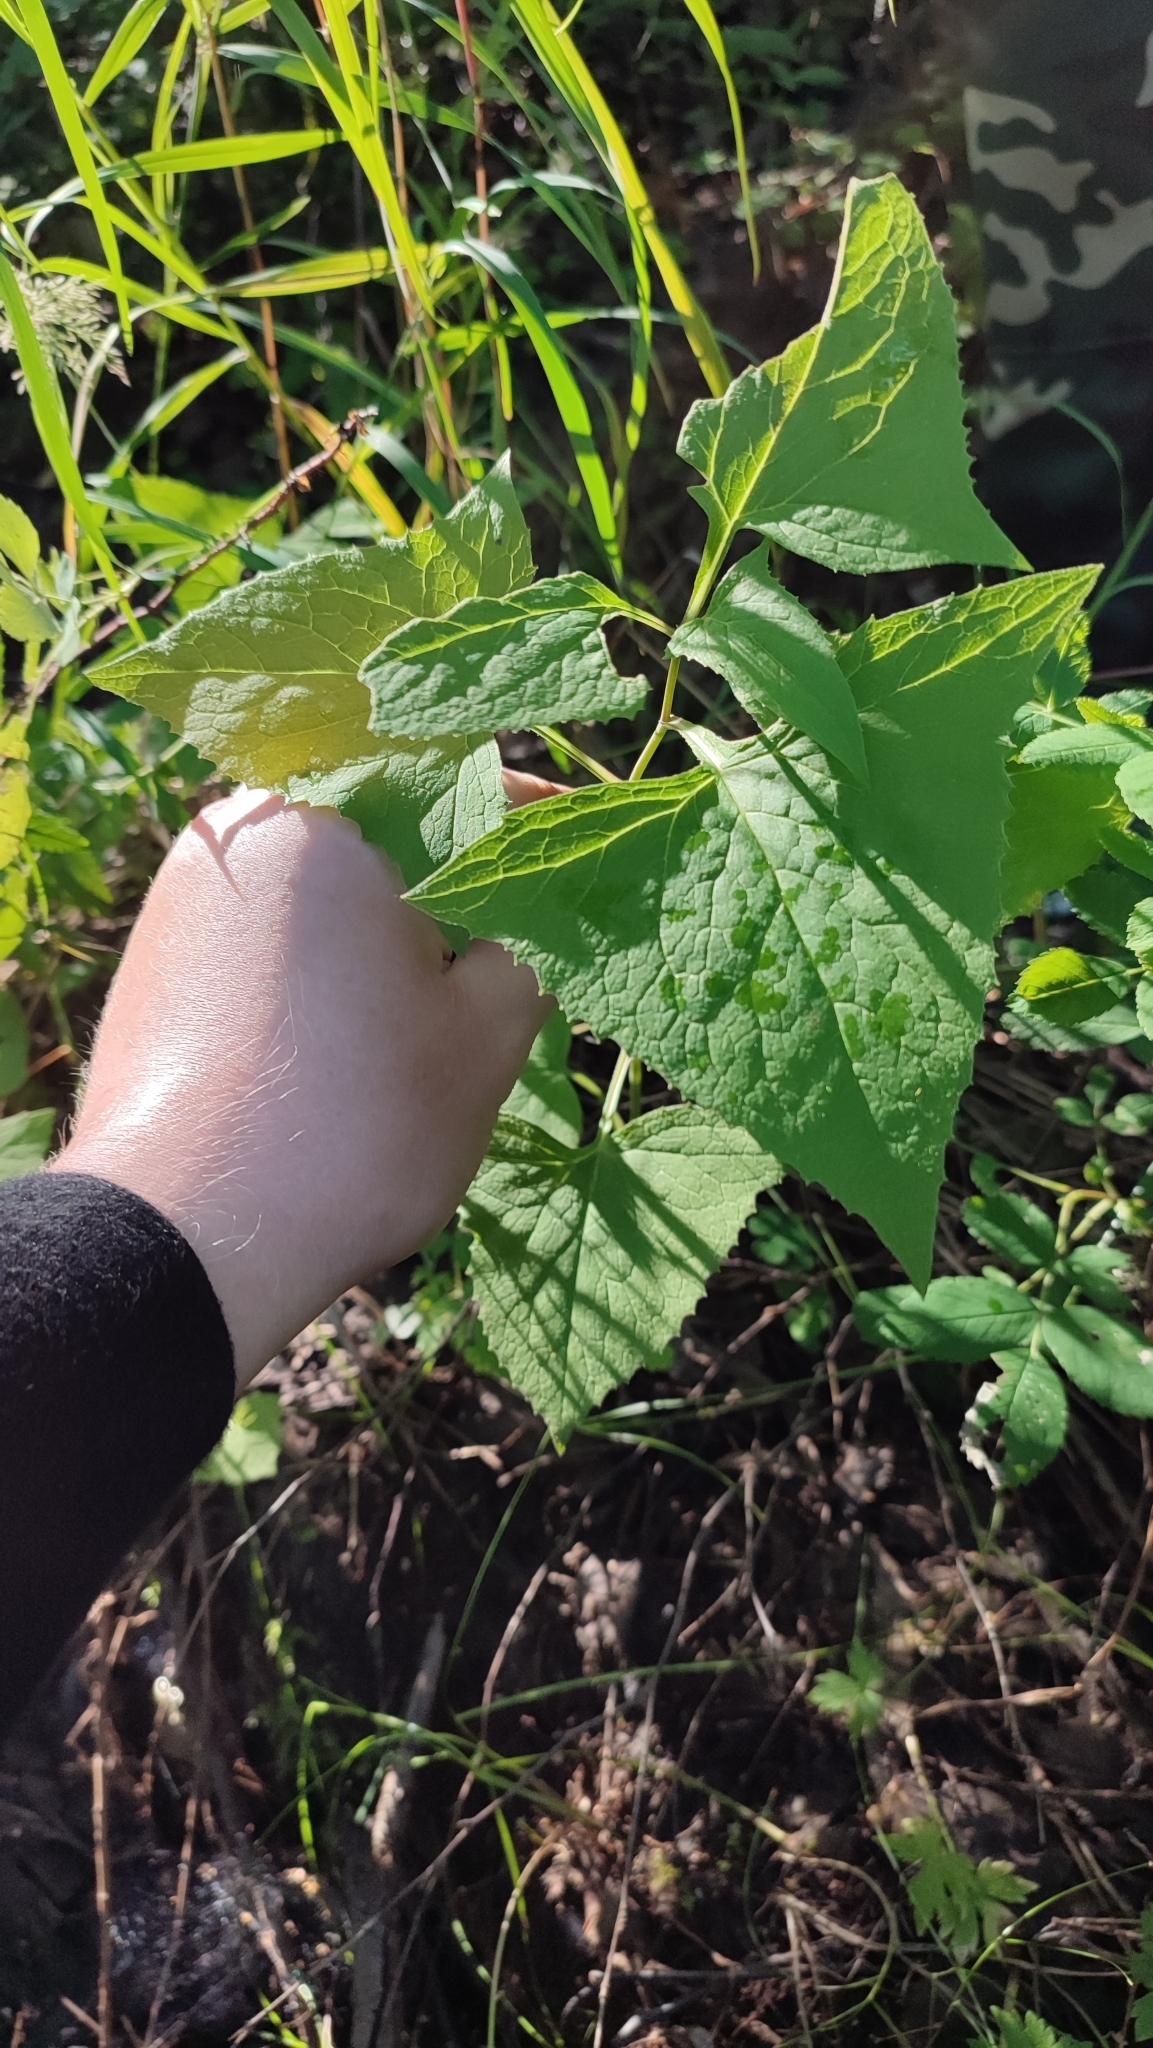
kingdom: Plantae
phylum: Tracheophyta
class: Magnoliopsida
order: Asterales
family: Asteraceae
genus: Parasenecio
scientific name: Parasenecio hastatus
